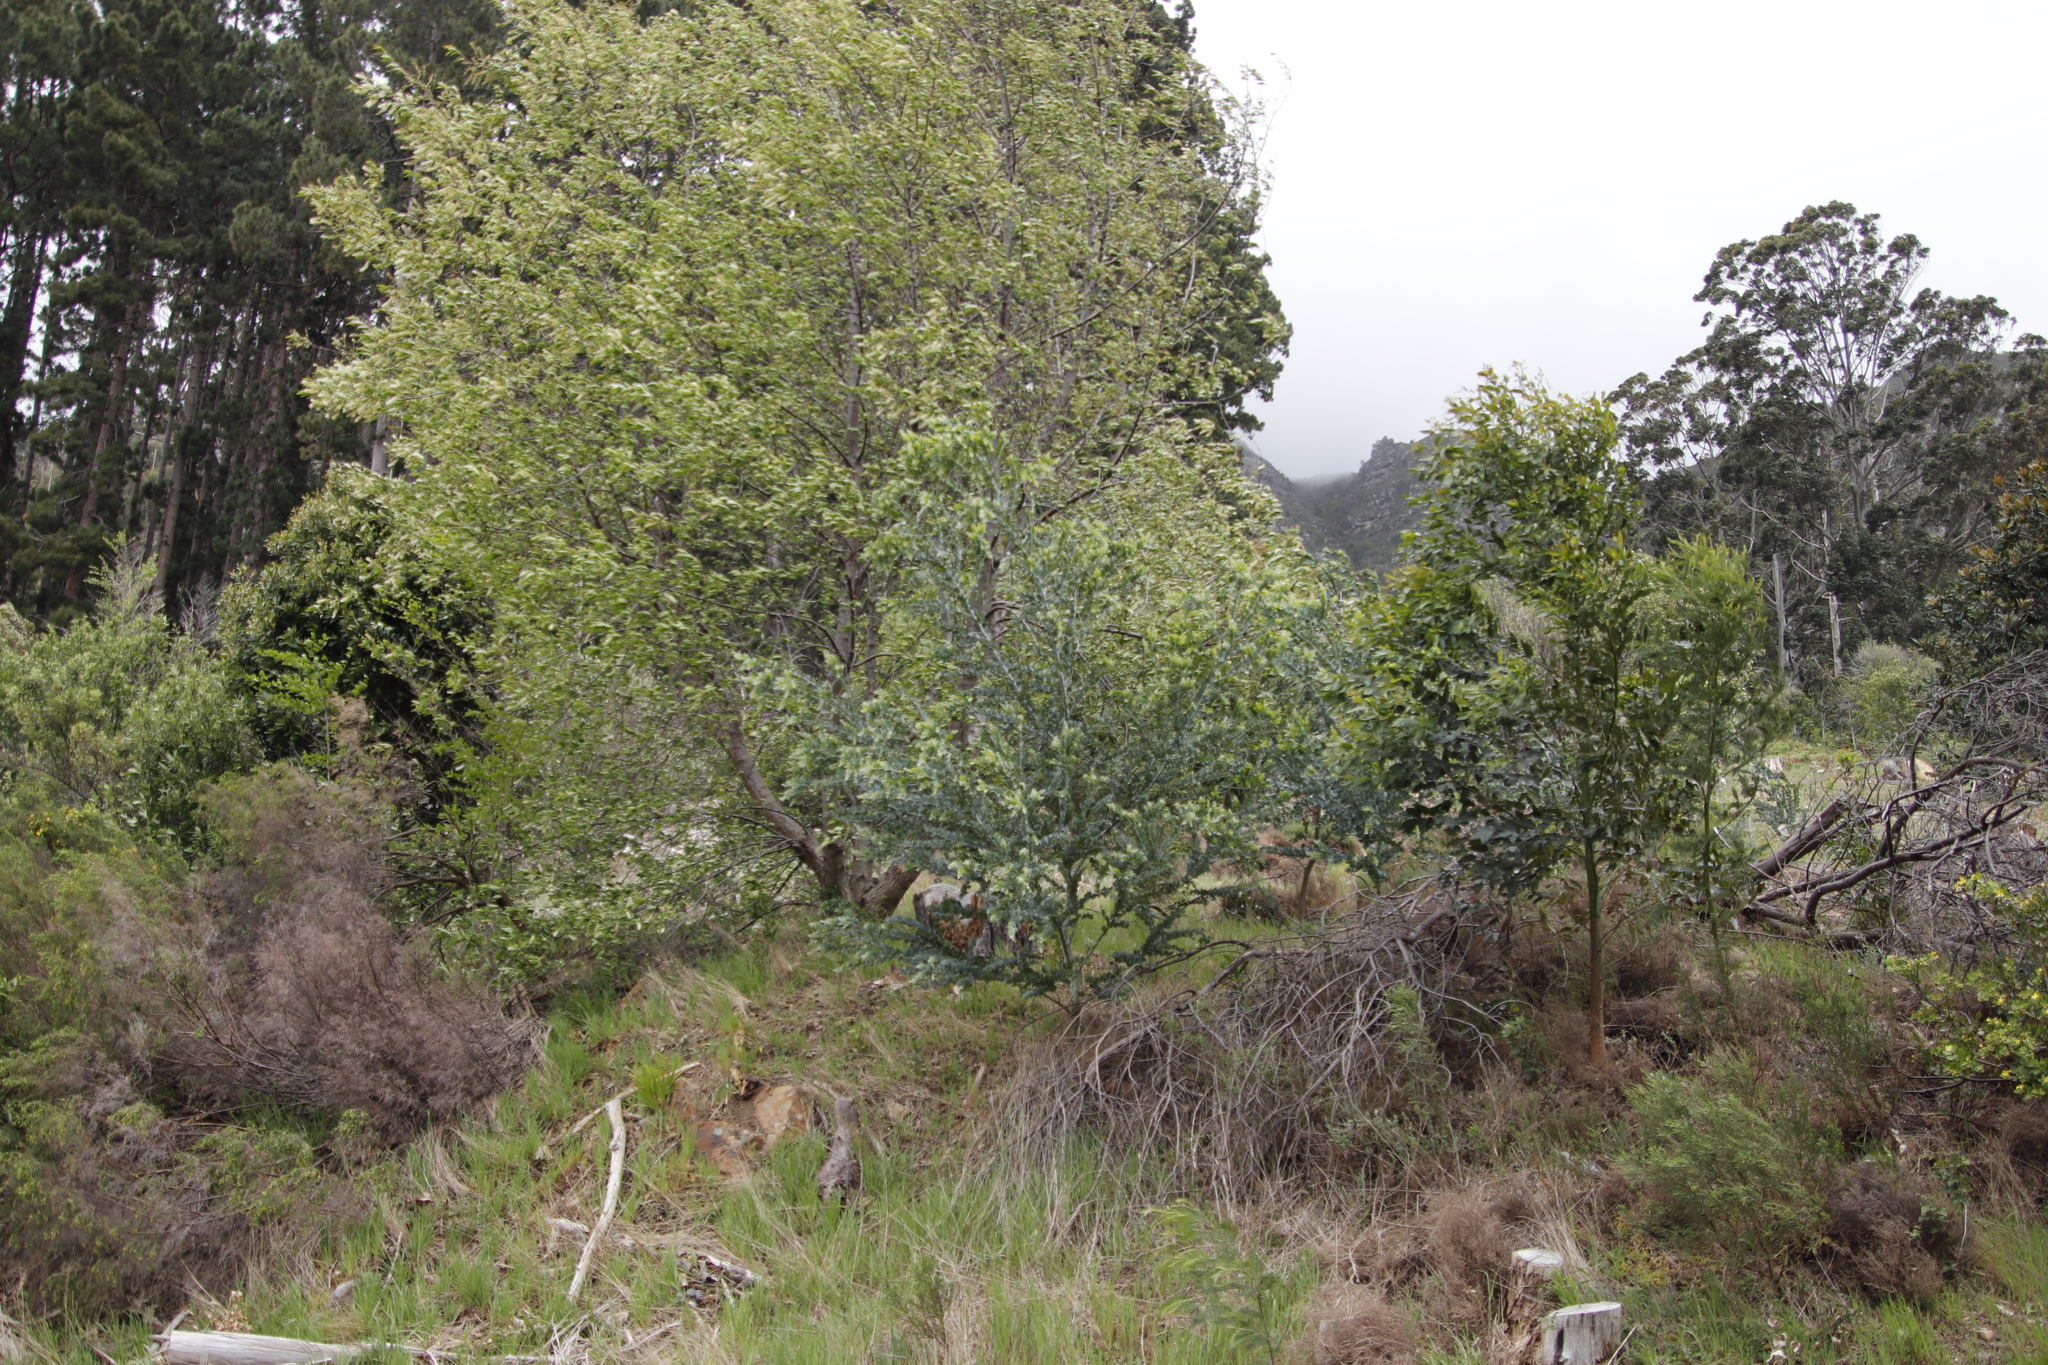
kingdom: Plantae
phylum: Tracheophyta
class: Magnoliopsida
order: Fabales
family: Fabaceae
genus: Acacia
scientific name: Acacia podalyriifolia
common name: Pearl wattle
